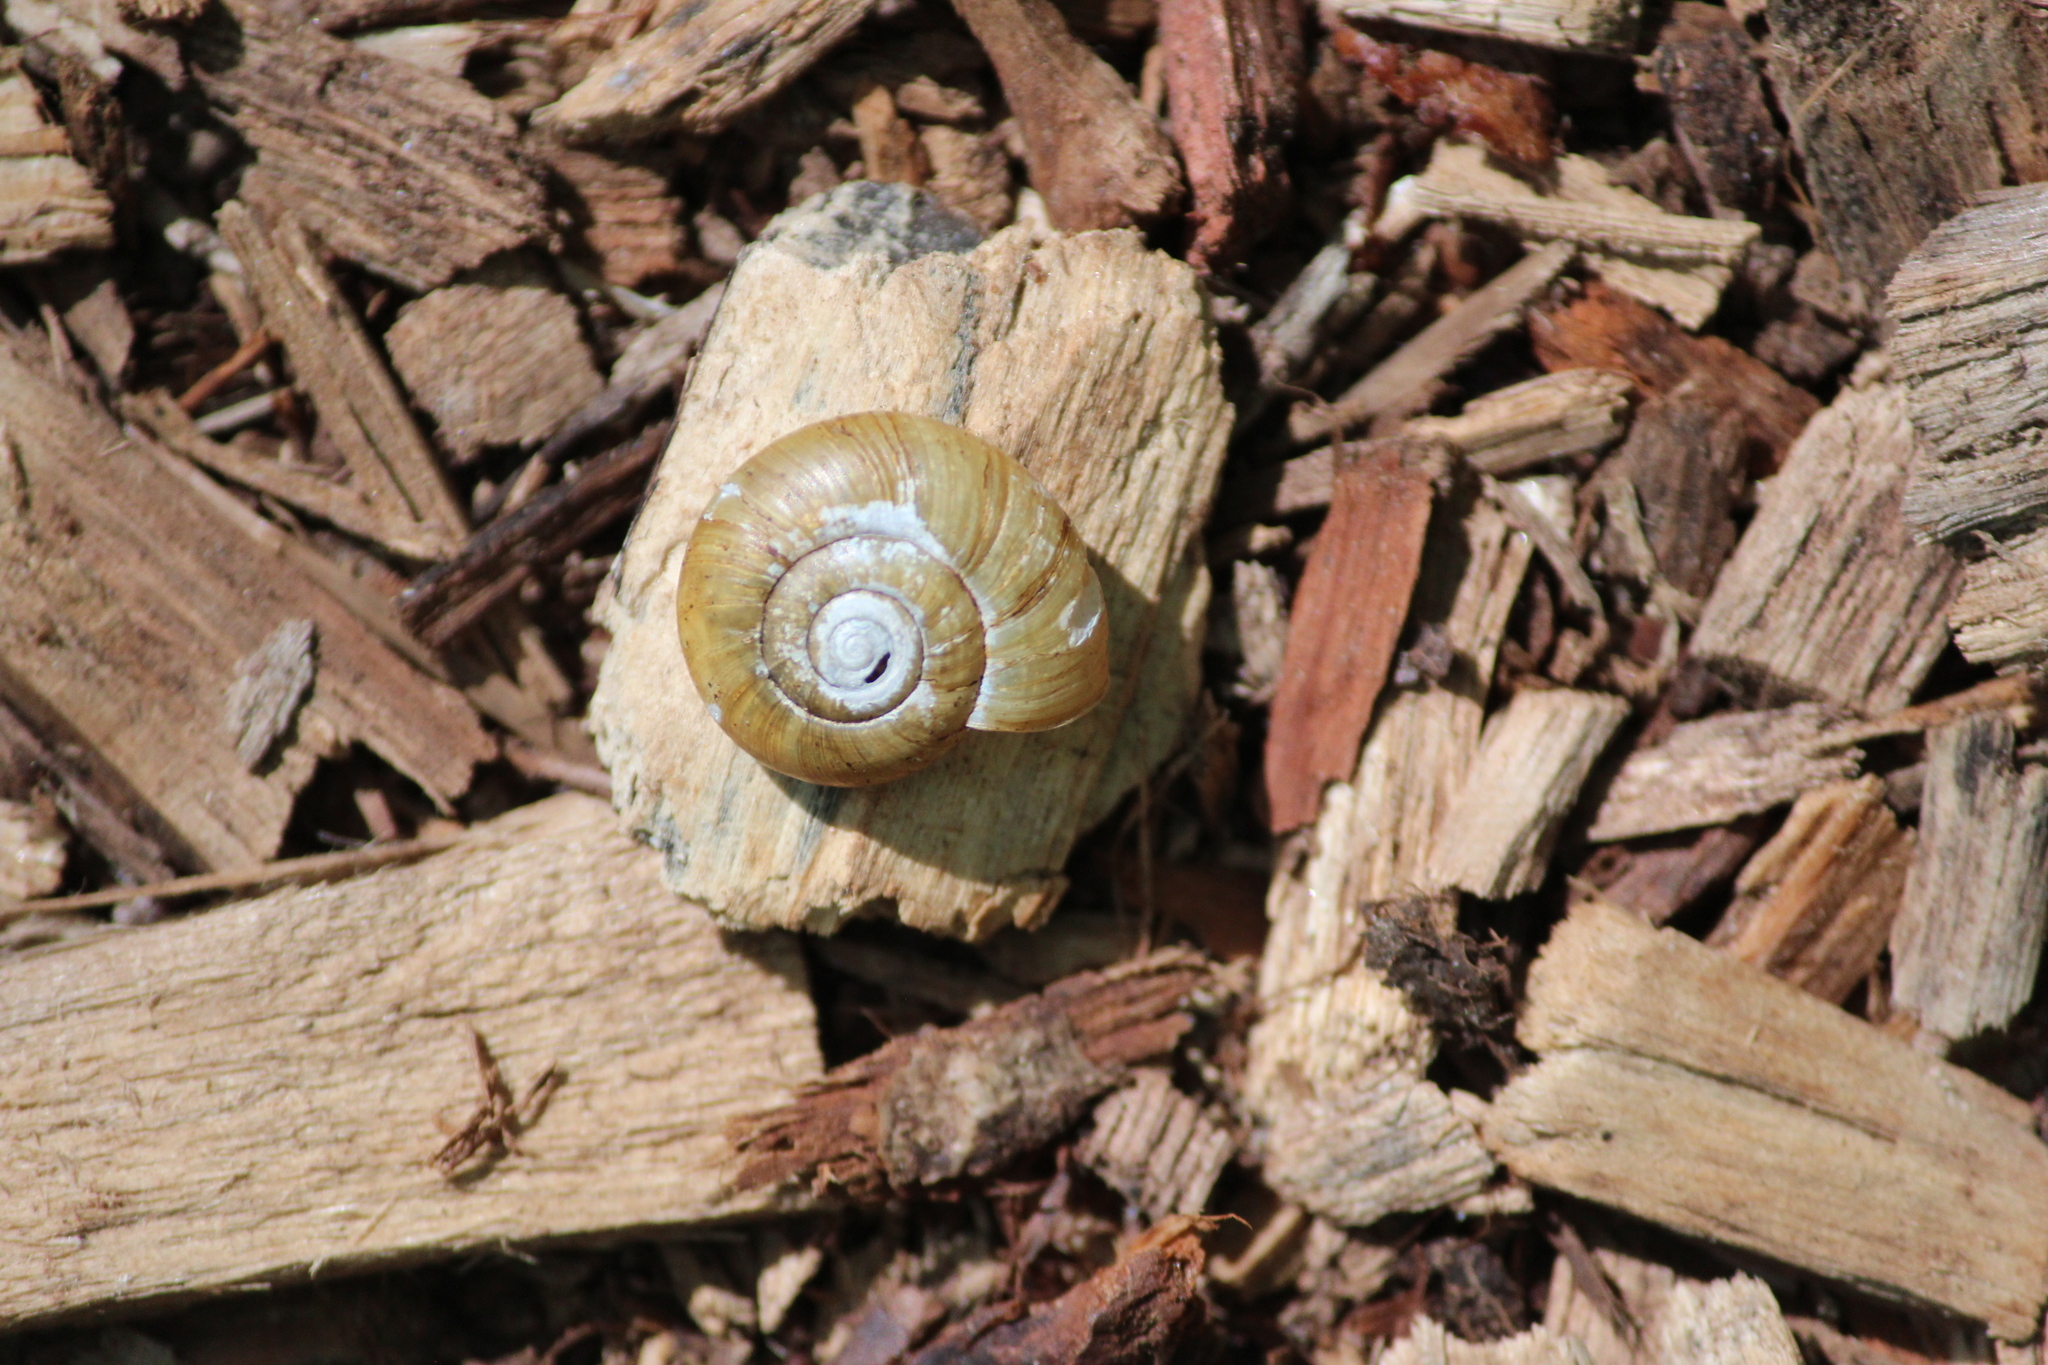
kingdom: Animalia
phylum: Mollusca
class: Gastropoda
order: Stylommatophora
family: Haplotrematidae
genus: Haplotrema
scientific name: Haplotrema concavum
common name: Gray-foot lancetooth
